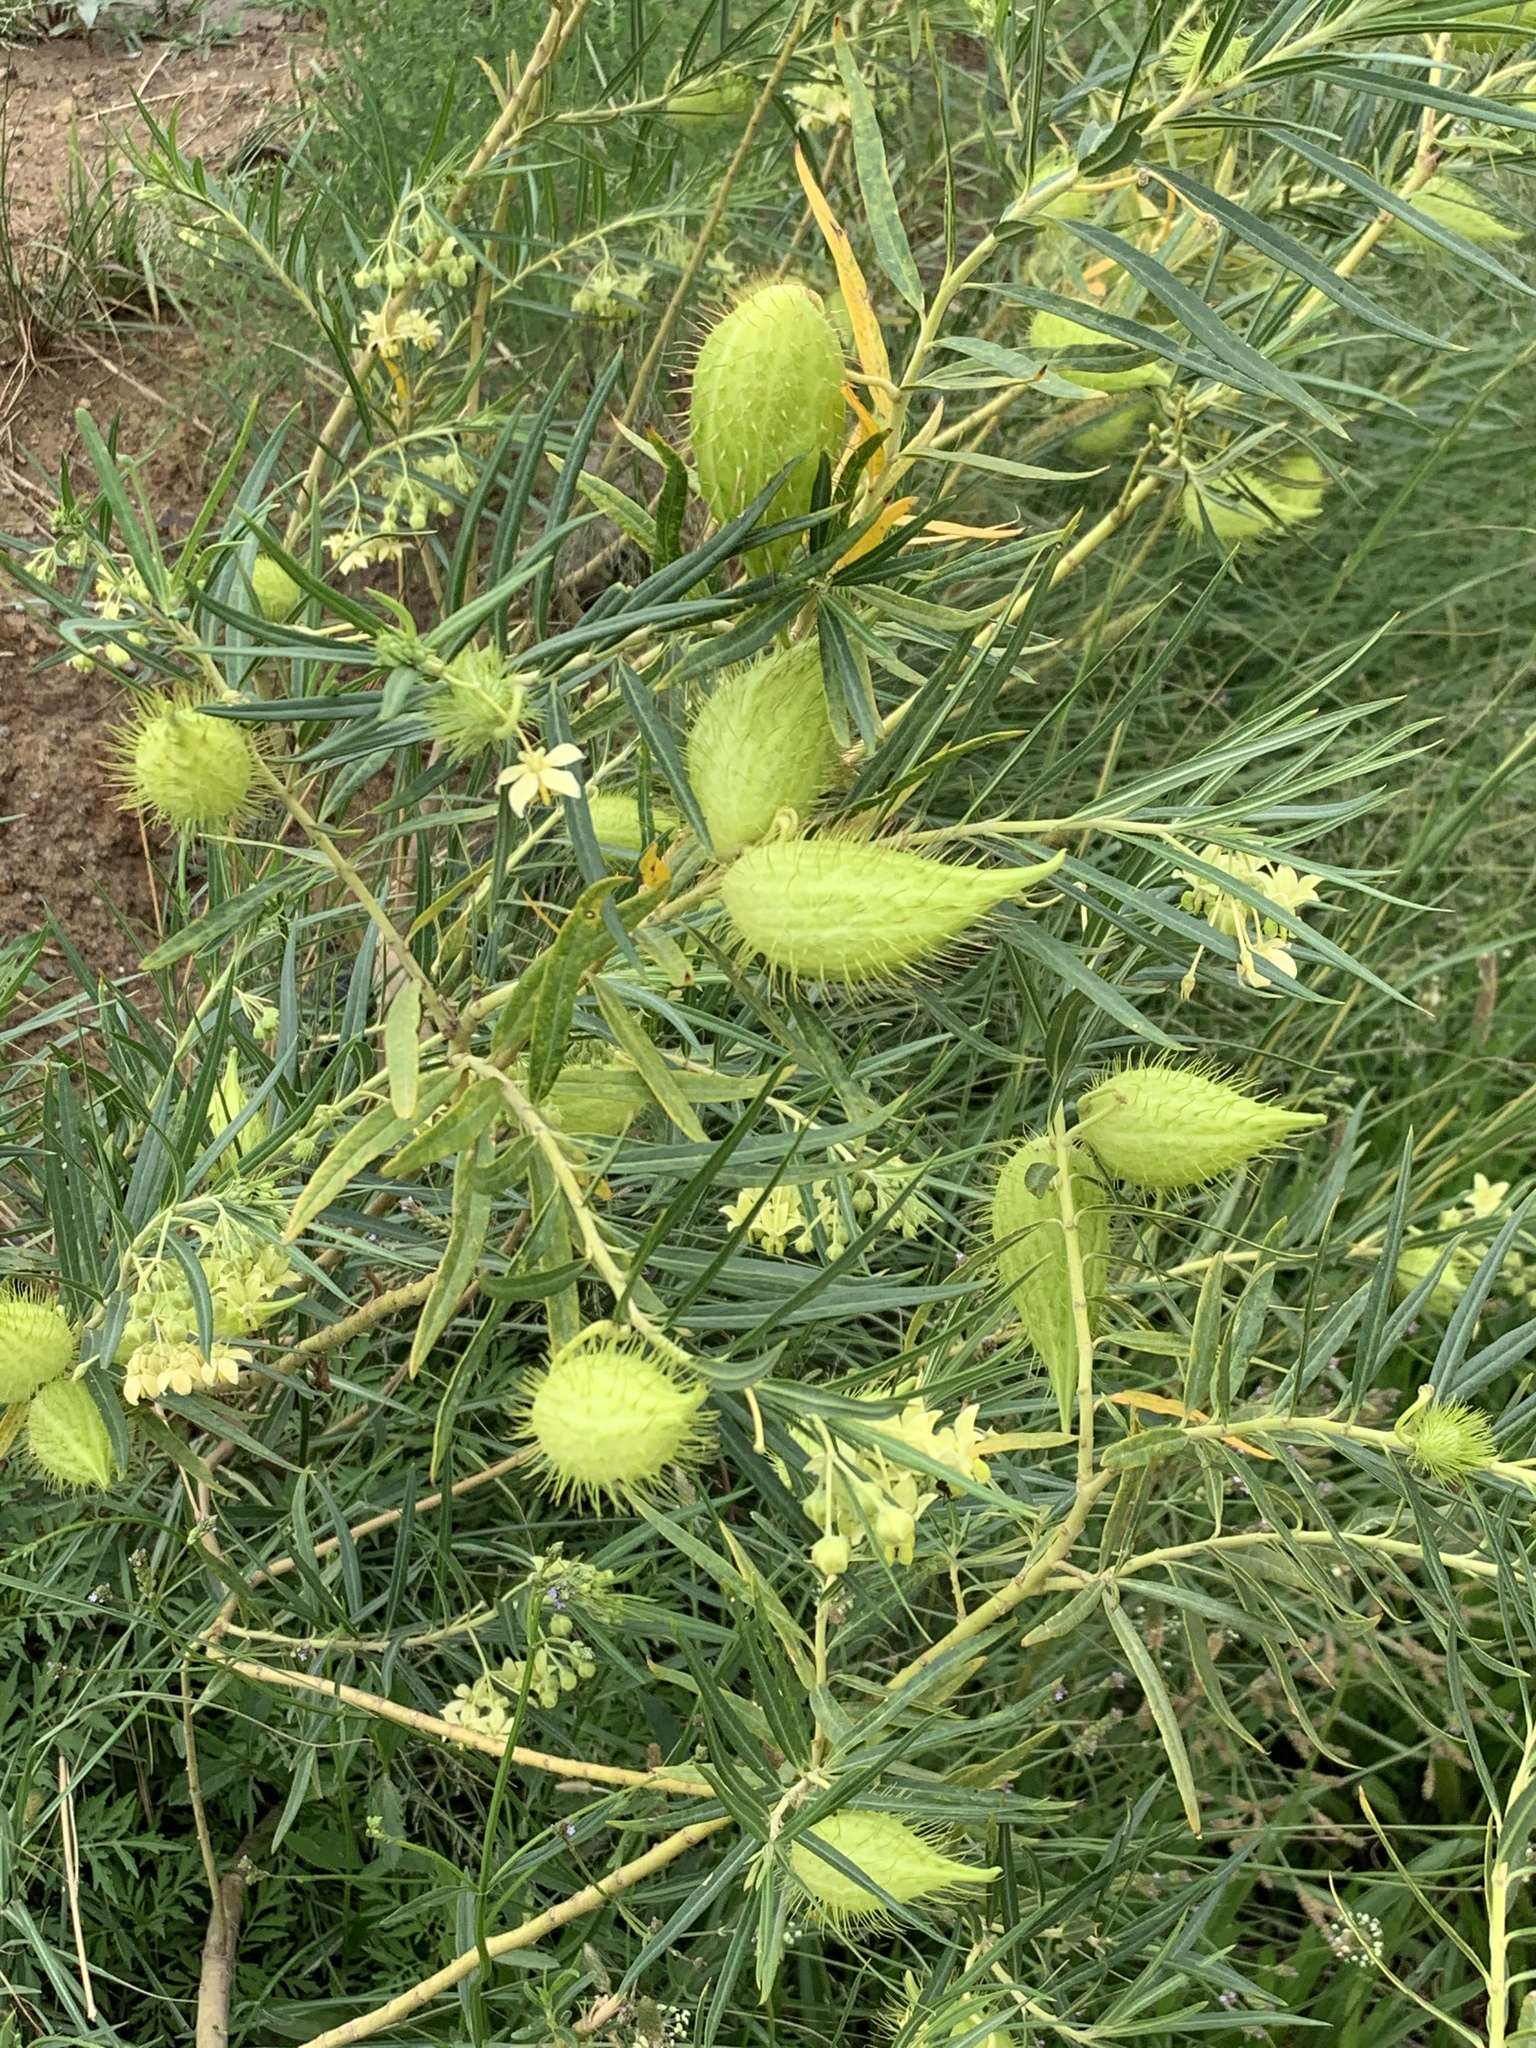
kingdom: Plantae
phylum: Tracheophyta
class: Magnoliopsida
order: Gentianales
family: Apocynaceae
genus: Gomphocarpus
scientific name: Gomphocarpus fruticosus
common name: Milkweed
